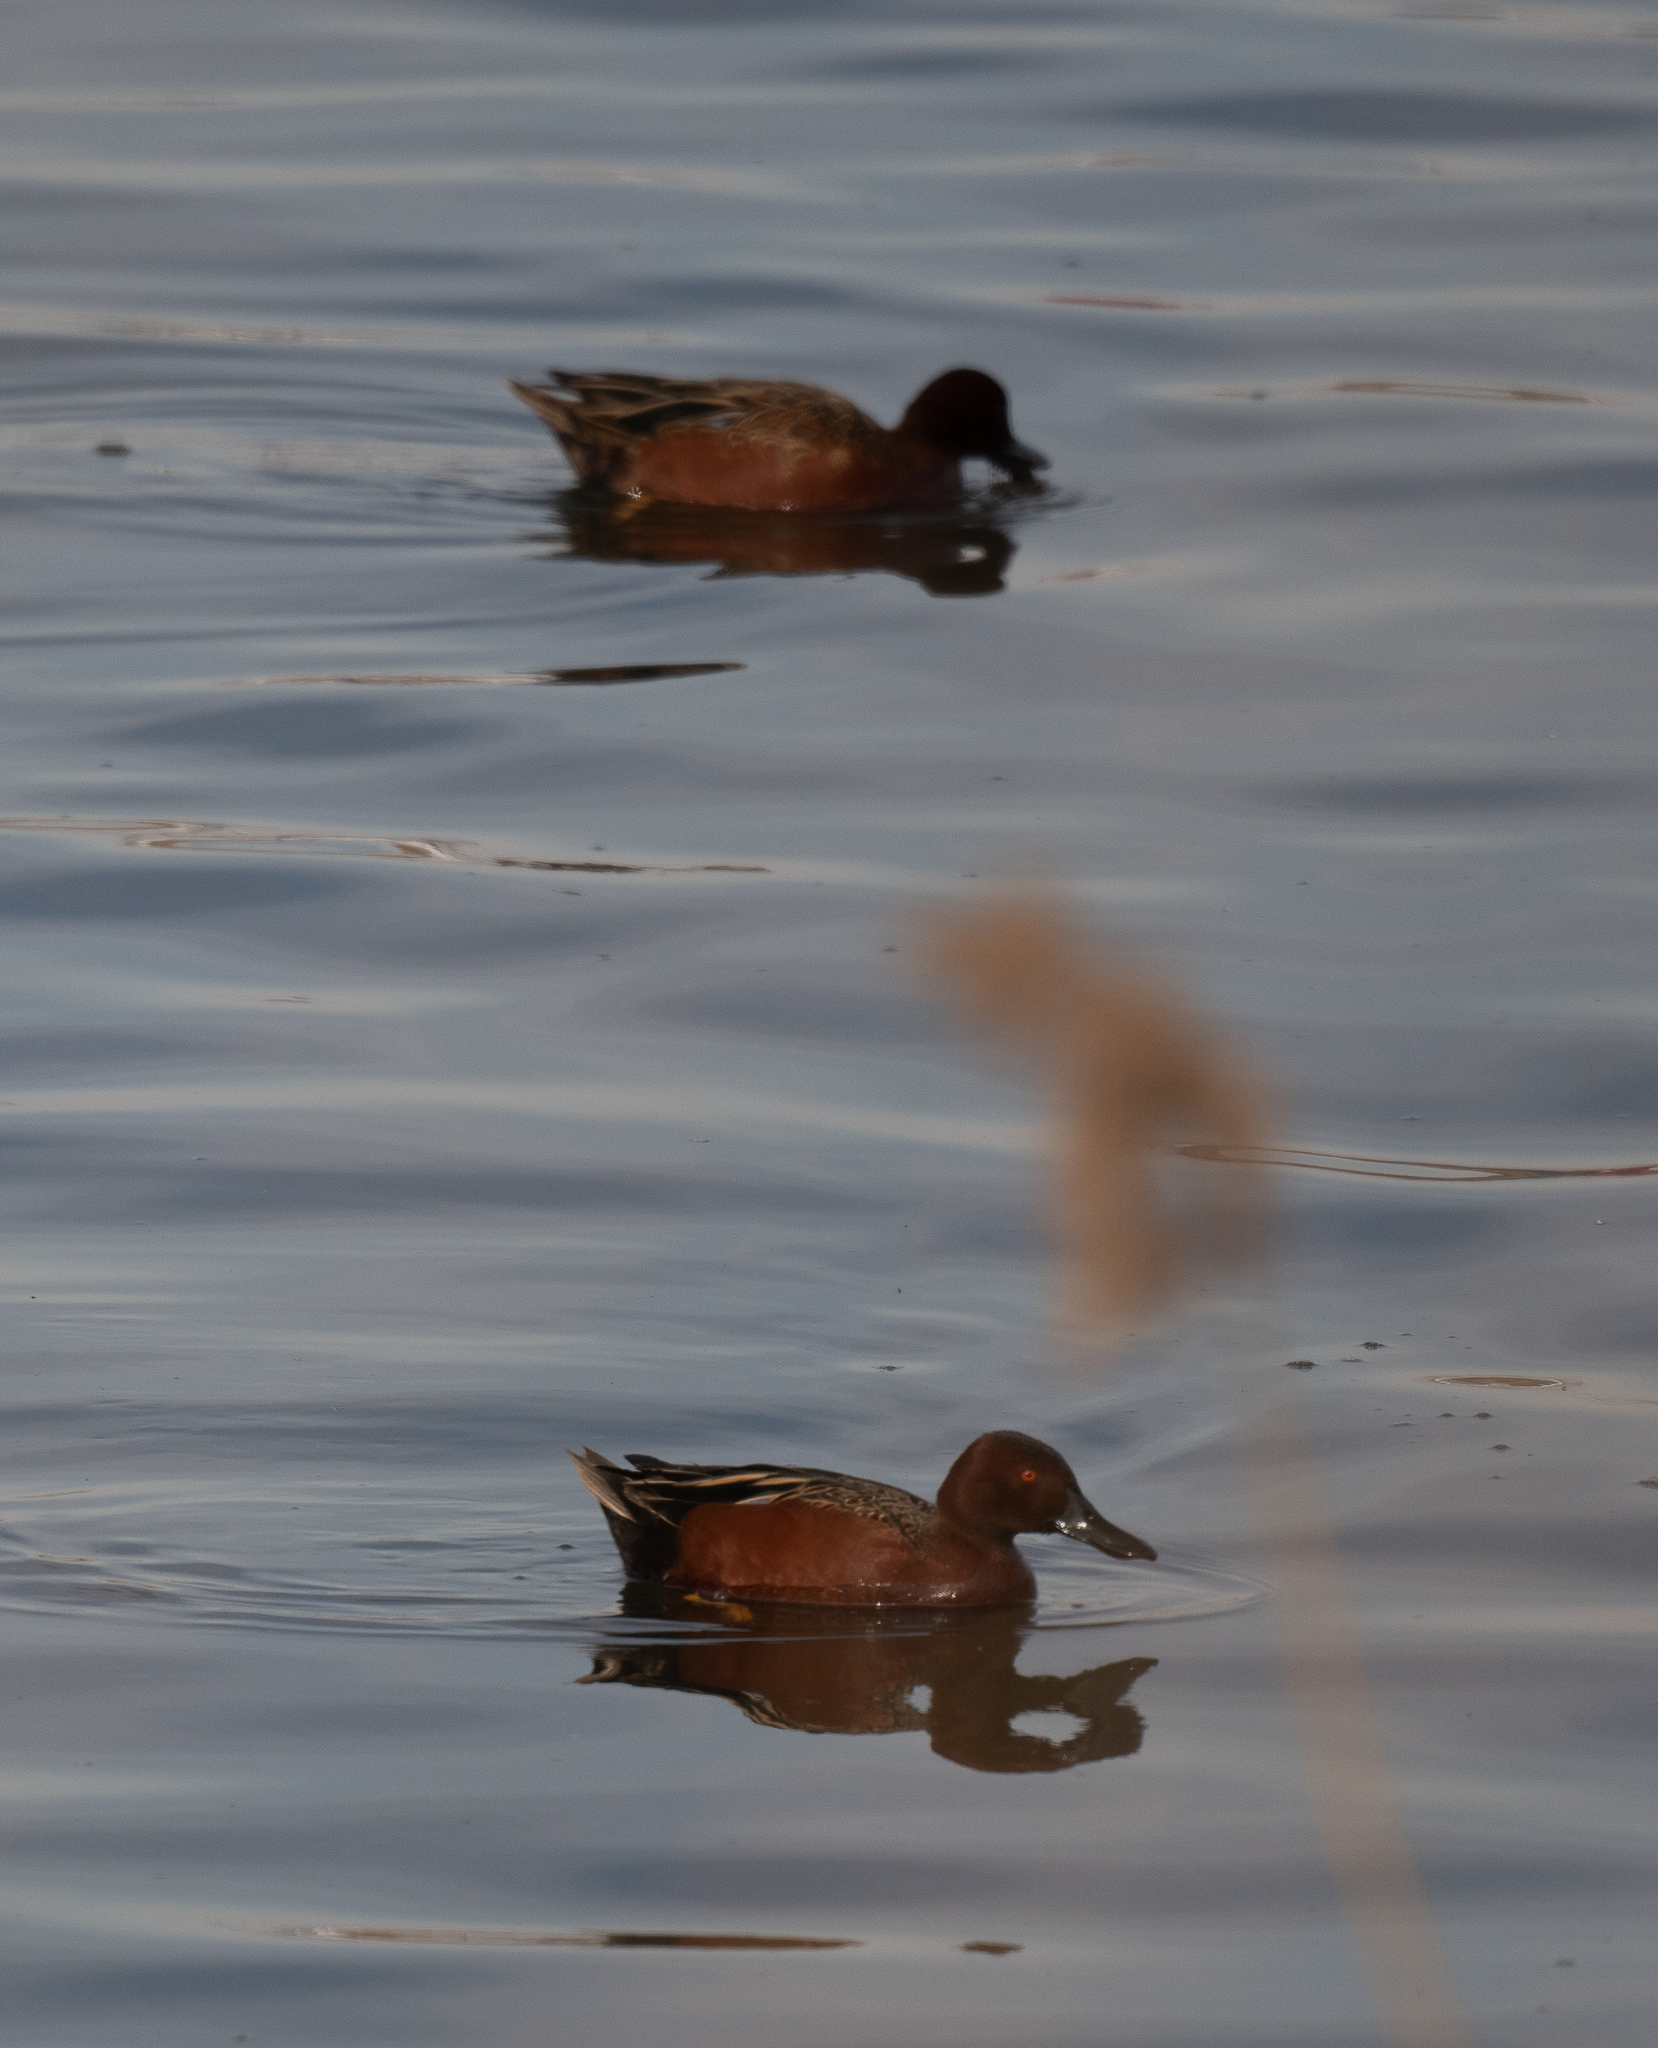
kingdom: Animalia
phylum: Chordata
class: Aves
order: Anseriformes
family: Anatidae
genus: Spatula
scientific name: Spatula cyanoptera
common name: Cinnamon teal
